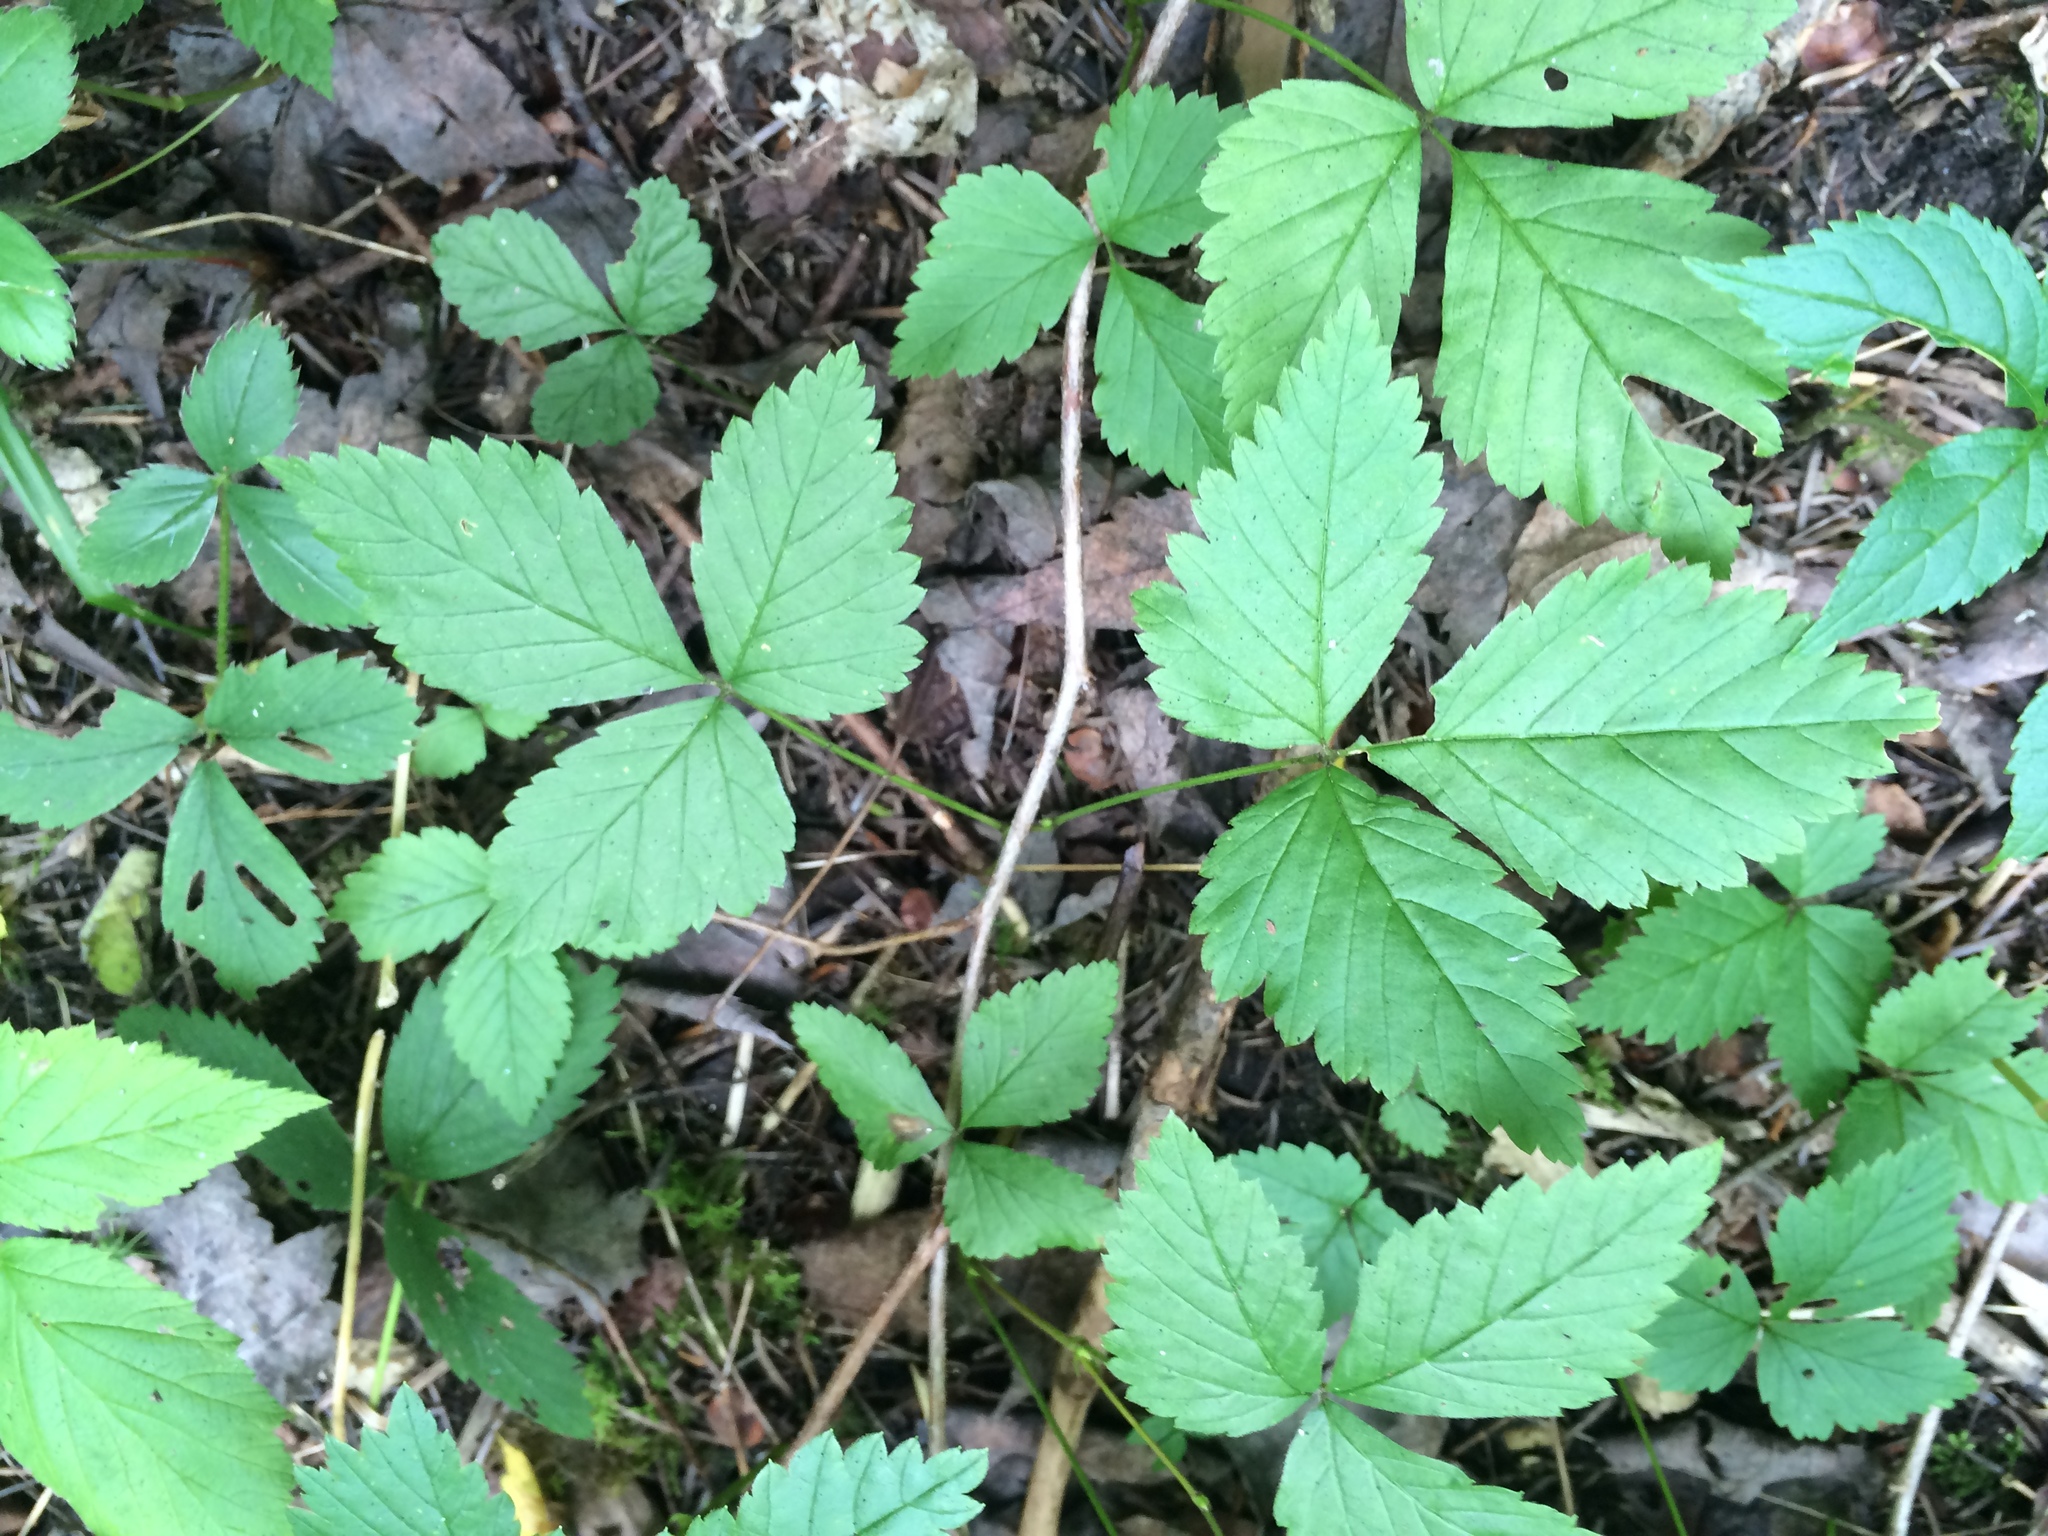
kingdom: Plantae
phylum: Tracheophyta
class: Magnoliopsida
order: Rosales
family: Rosaceae
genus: Rubus
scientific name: Rubus pubescens
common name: Dwarf raspberry
